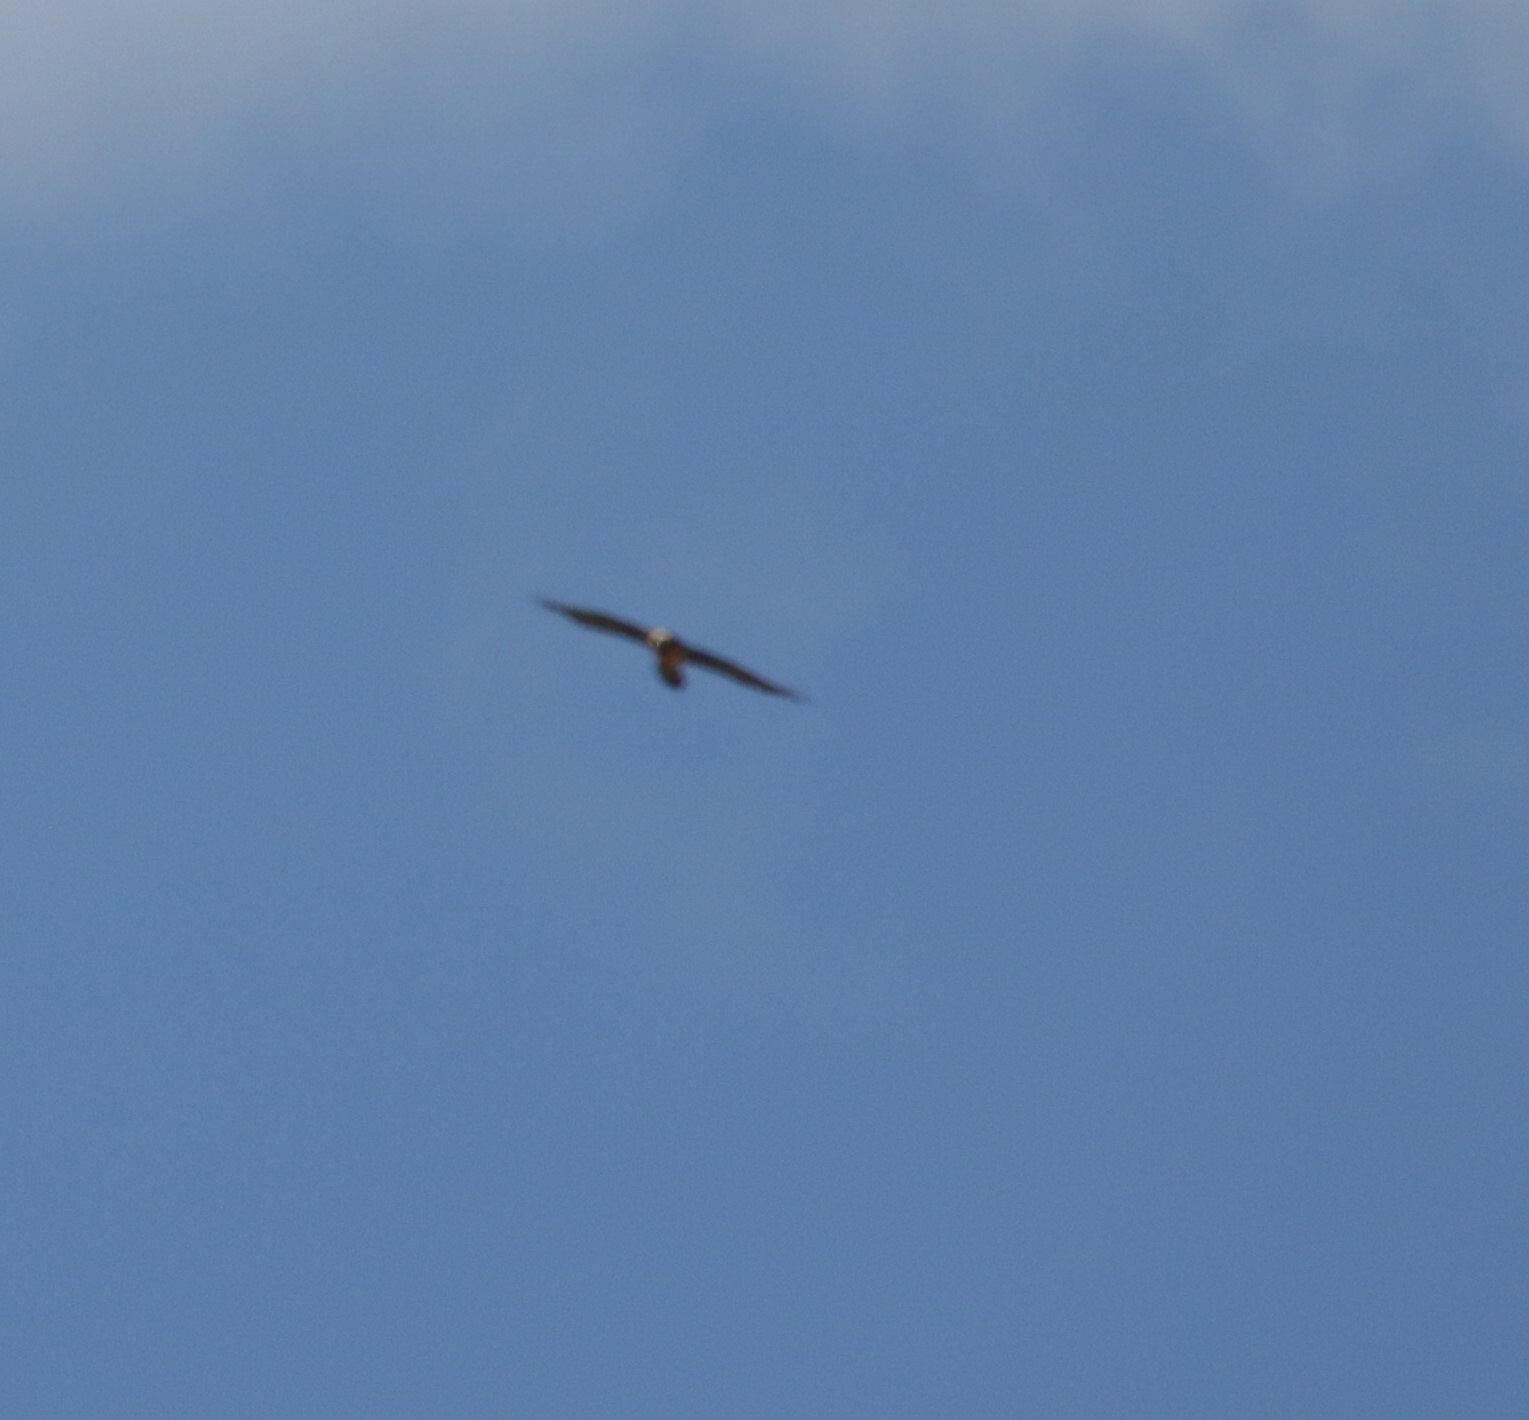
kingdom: Animalia
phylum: Chordata
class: Aves
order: Accipitriformes
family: Accipitridae
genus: Gypaetus
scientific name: Gypaetus barbatus
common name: Bearded vulture
